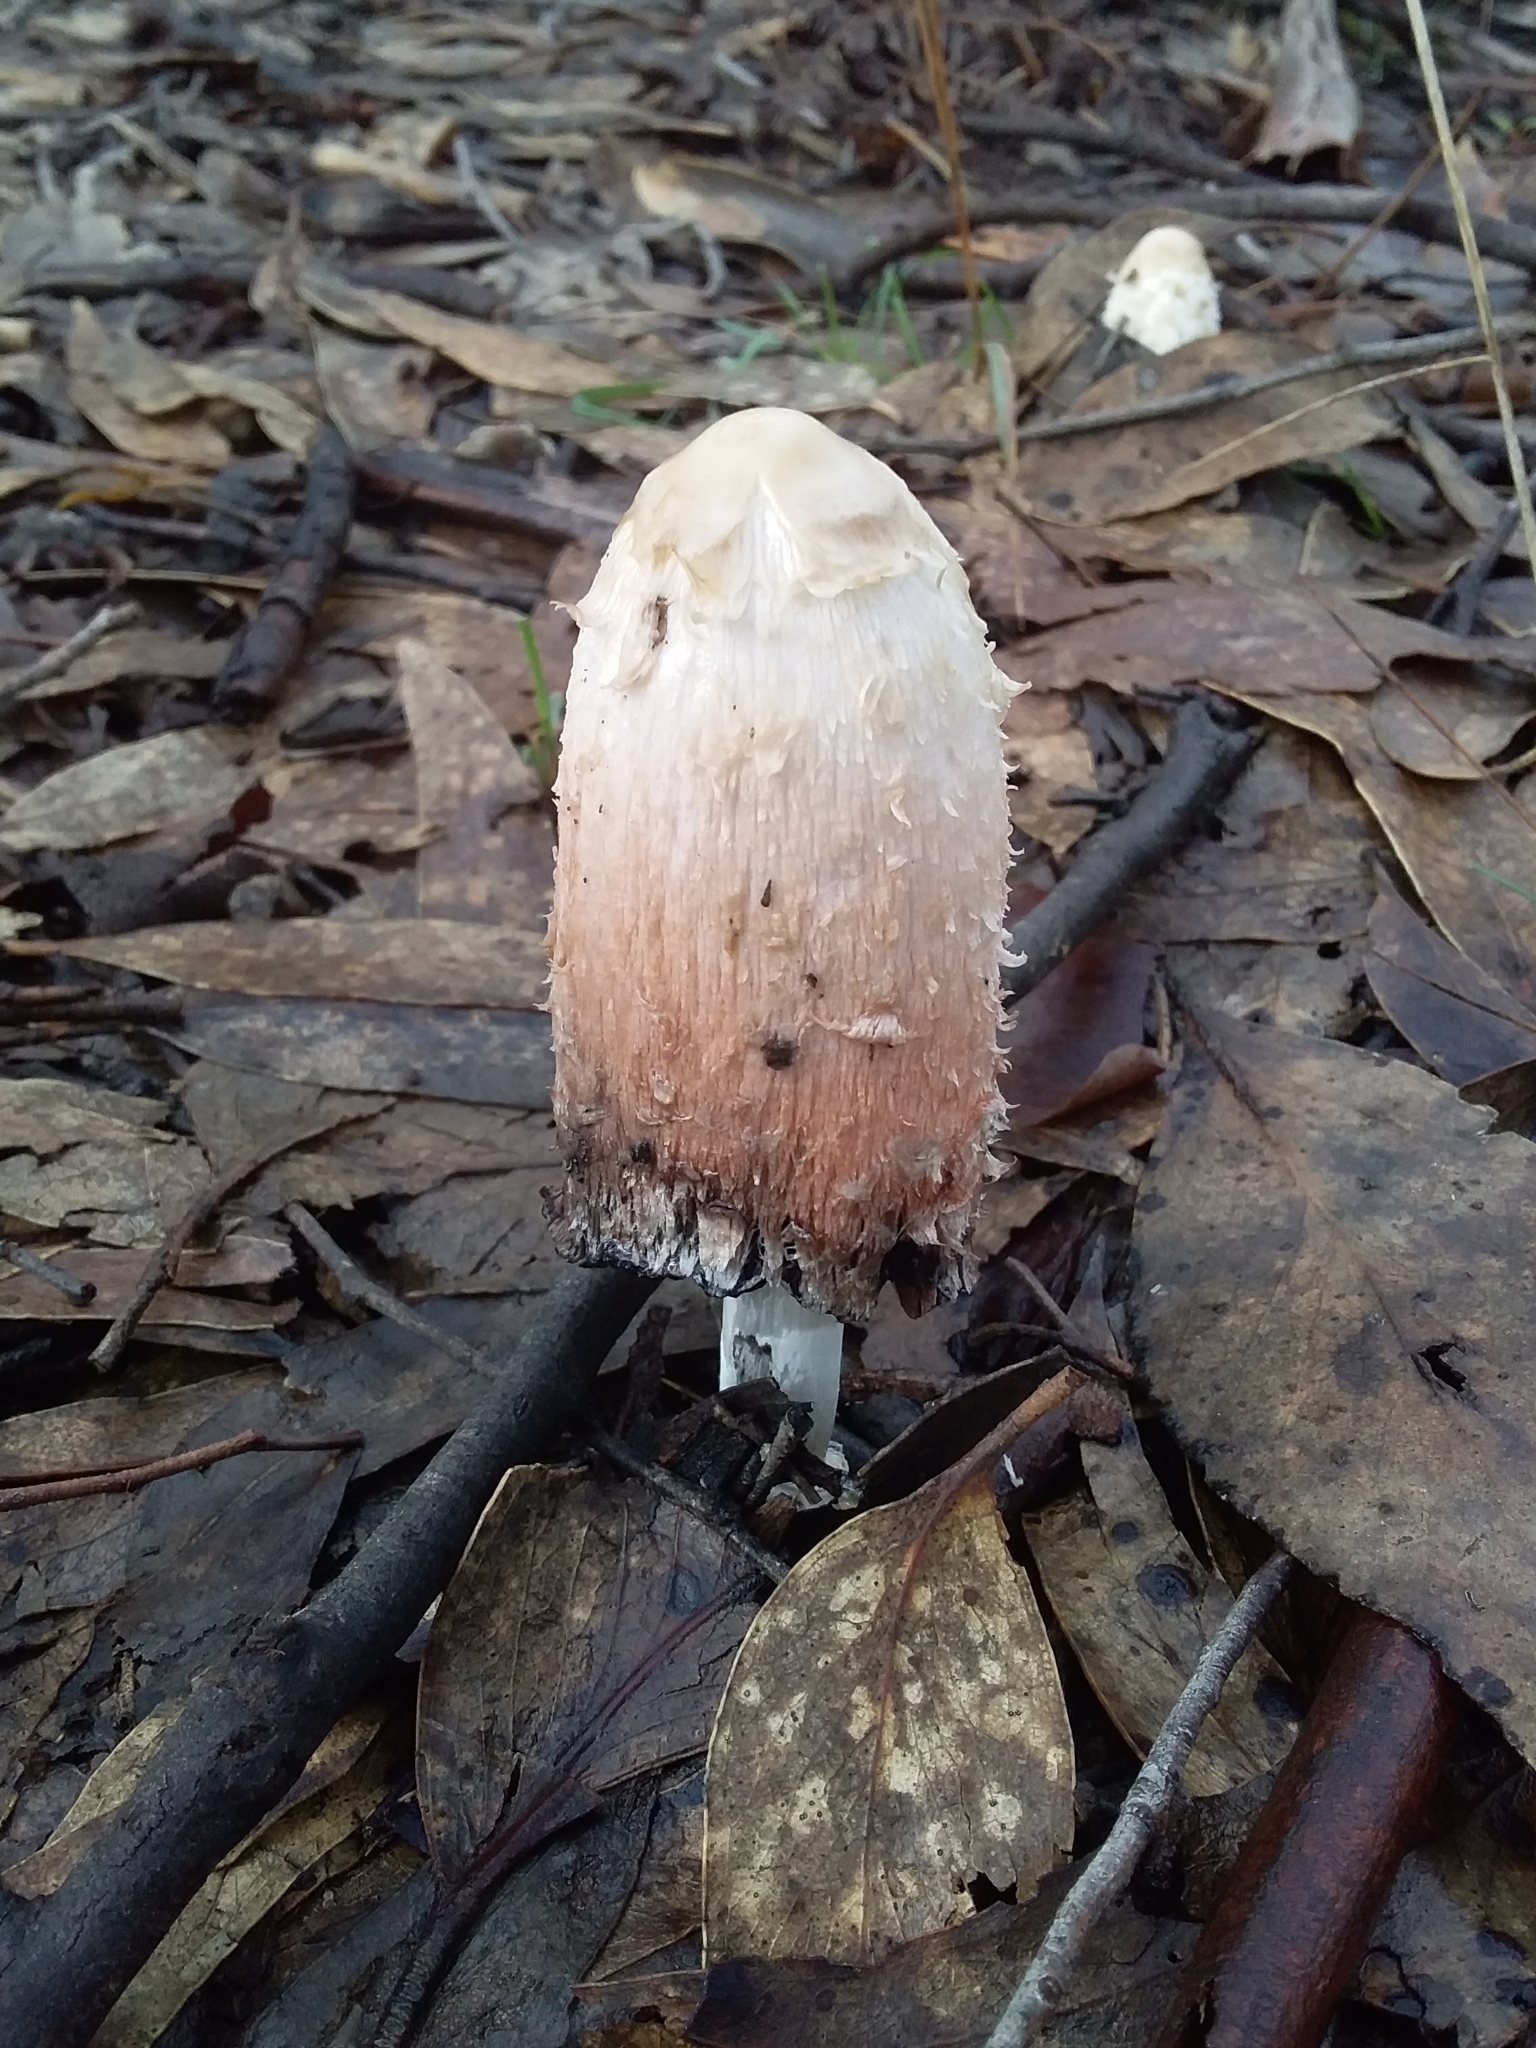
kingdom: Fungi
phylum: Basidiomycota
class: Agaricomycetes
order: Agaricales
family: Agaricaceae
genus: Coprinus
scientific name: Coprinus comatus
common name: Lawyer's wig
